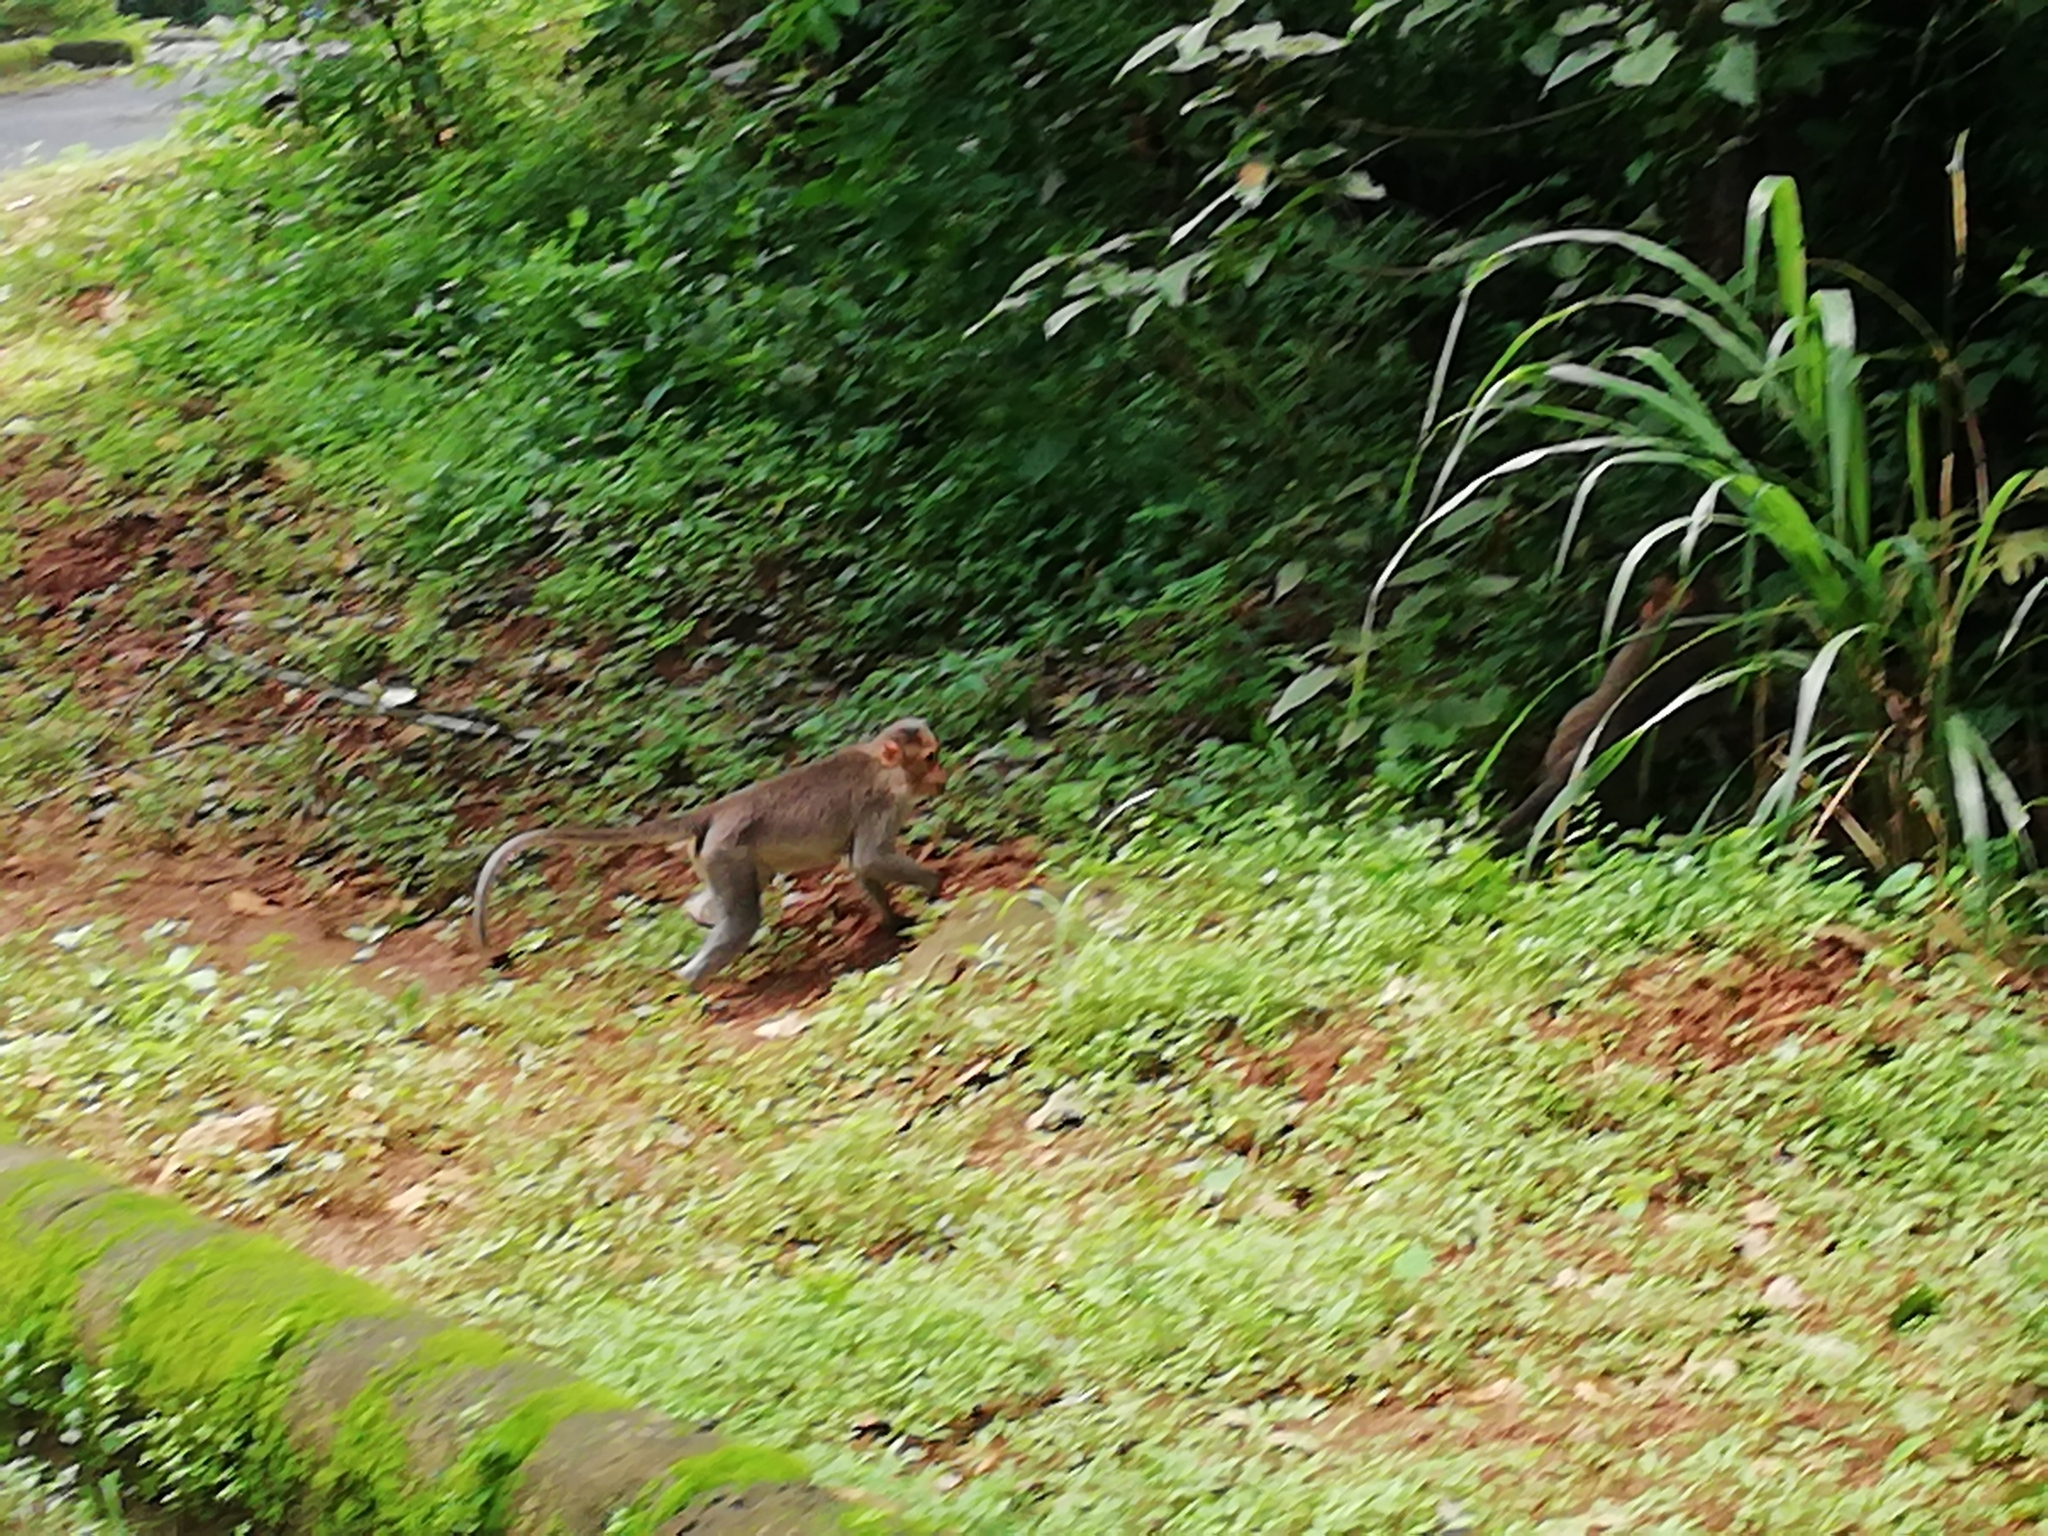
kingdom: Animalia
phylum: Chordata
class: Mammalia
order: Primates
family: Cercopithecidae
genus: Macaca
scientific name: Macaca radiata
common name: Bonnet macaque
